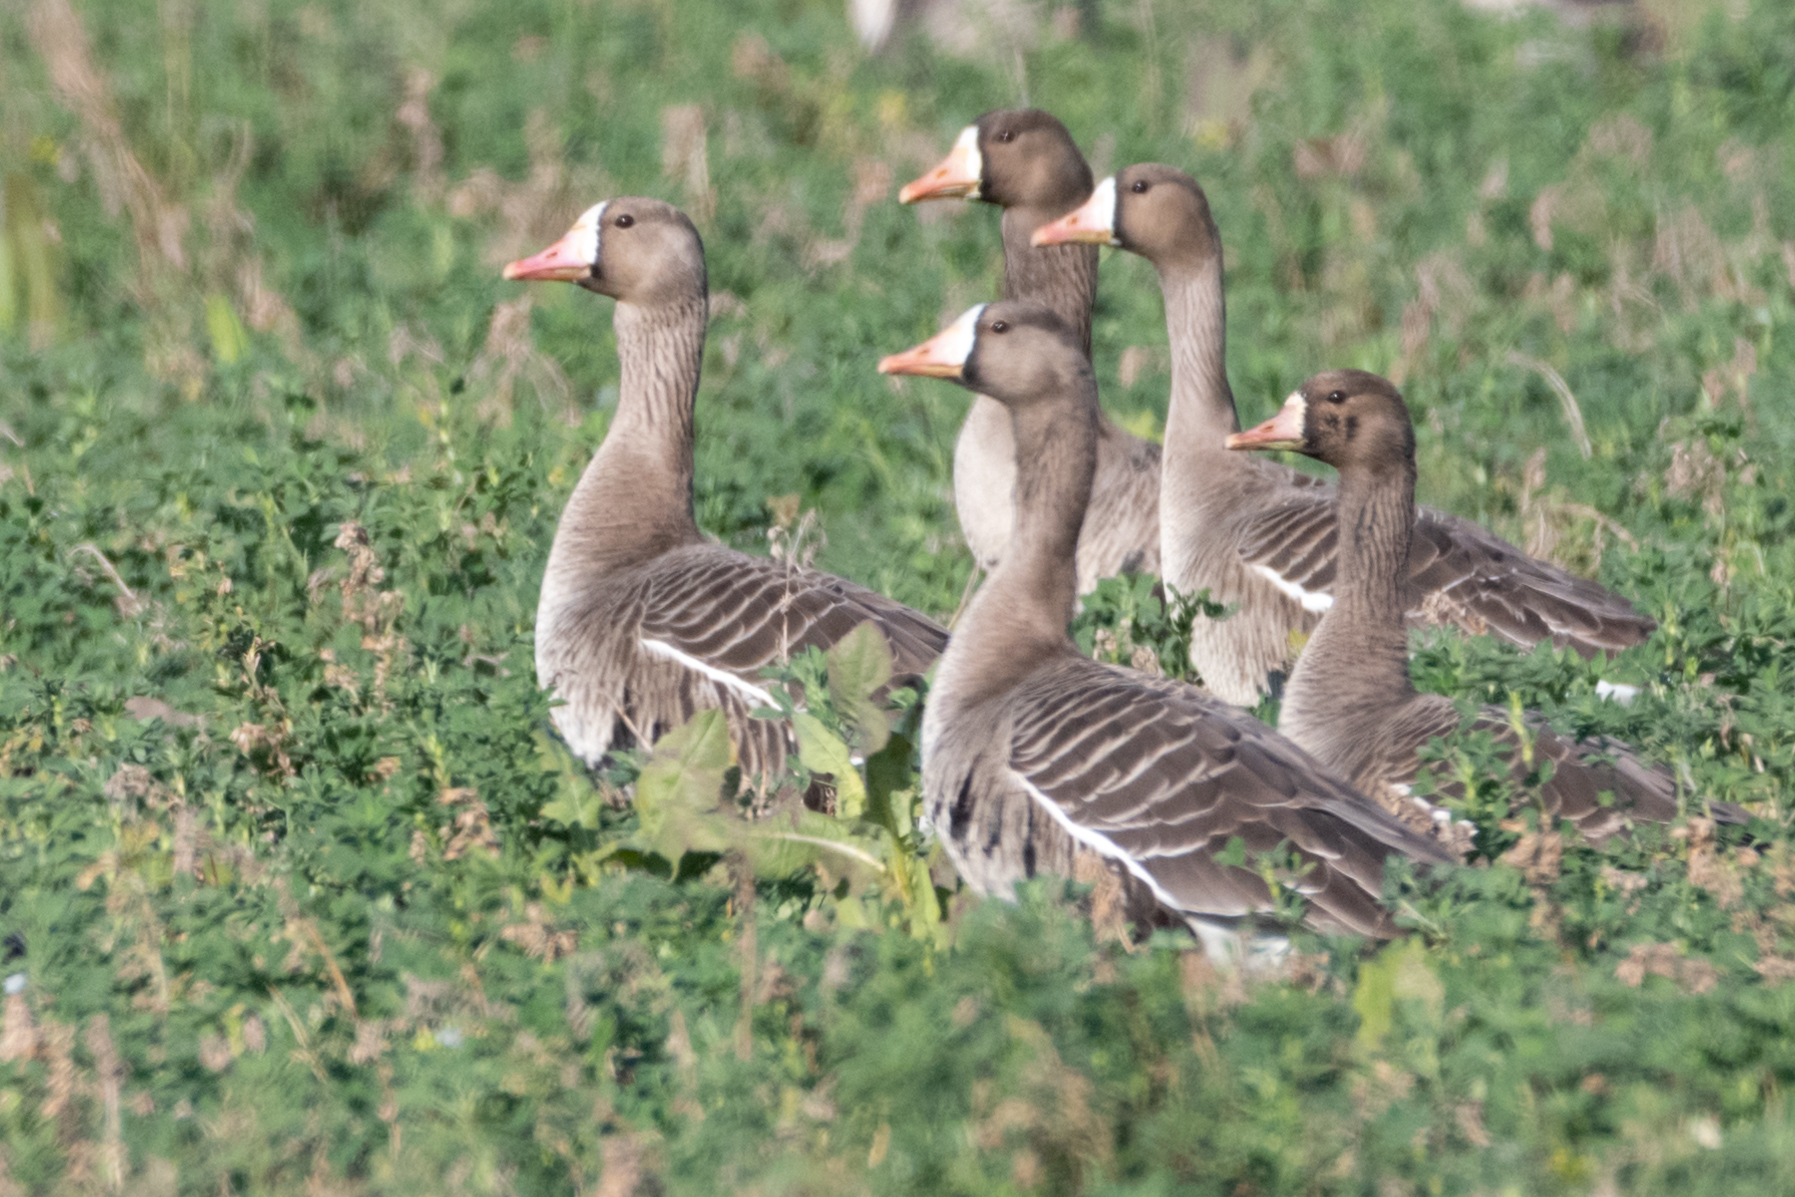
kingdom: Animalia
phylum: Chordata
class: Aves
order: Anseriformes
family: Anatidae
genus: Anser
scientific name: Anser albifrons
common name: Greater white-fronted goose
